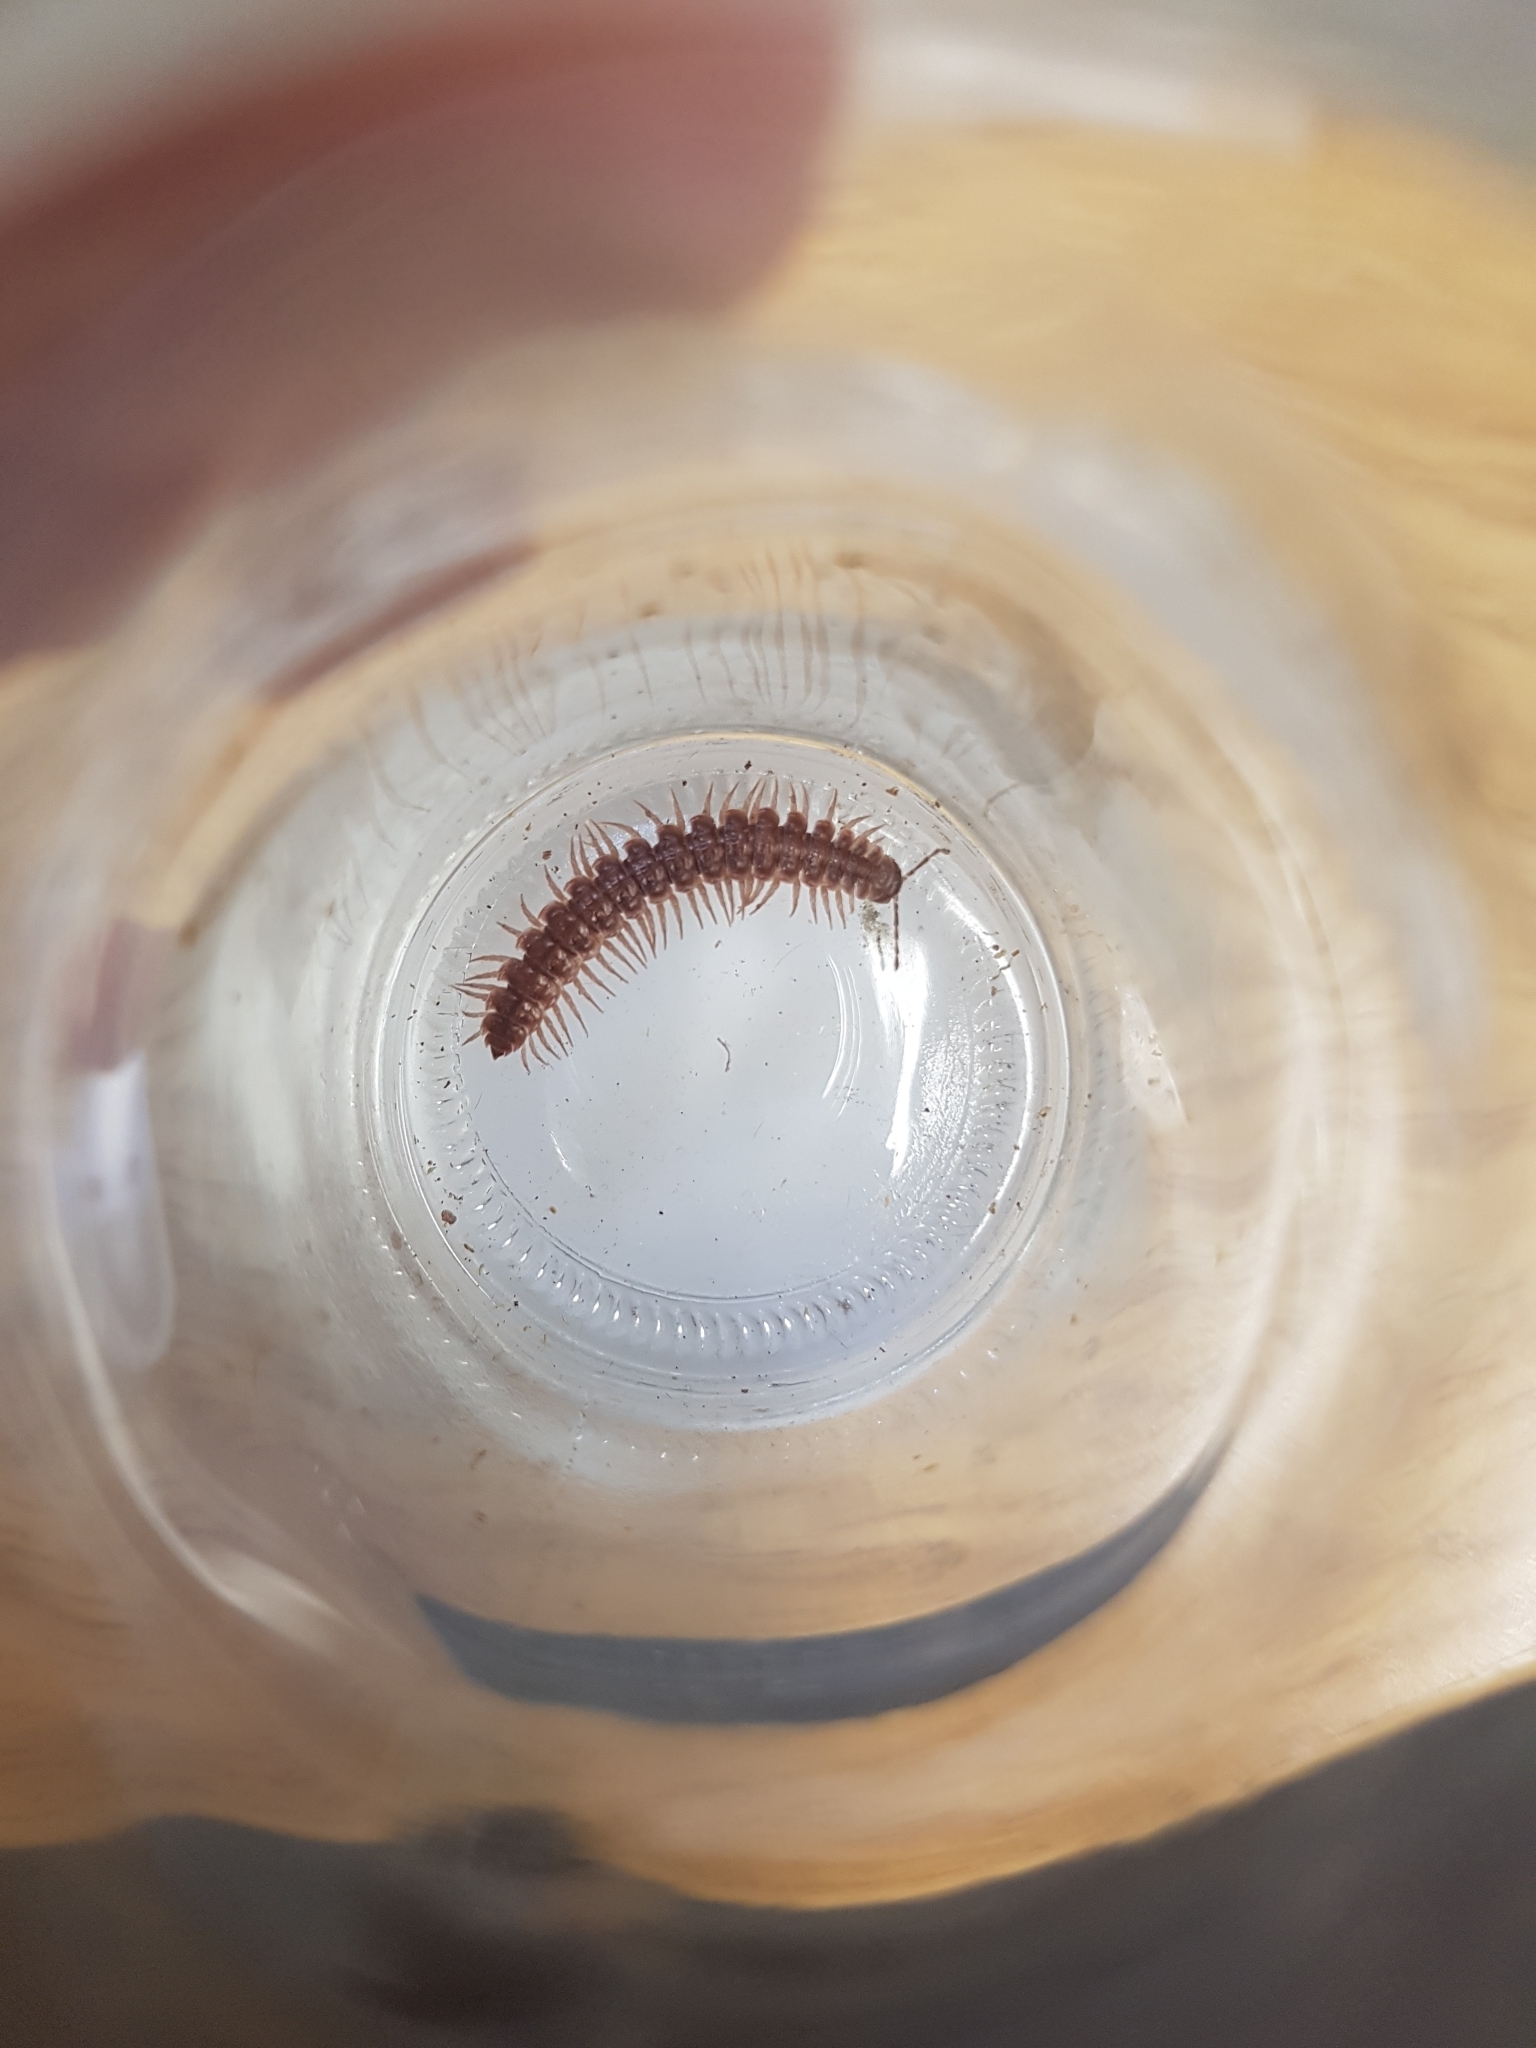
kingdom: Animalia
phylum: Arthropoda
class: Diplopoda
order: Polydesmida
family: Polydesmidae
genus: Pseudopolydesmus
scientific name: Pseudopolydesmus serratus
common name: Common pink flat-back millipede
